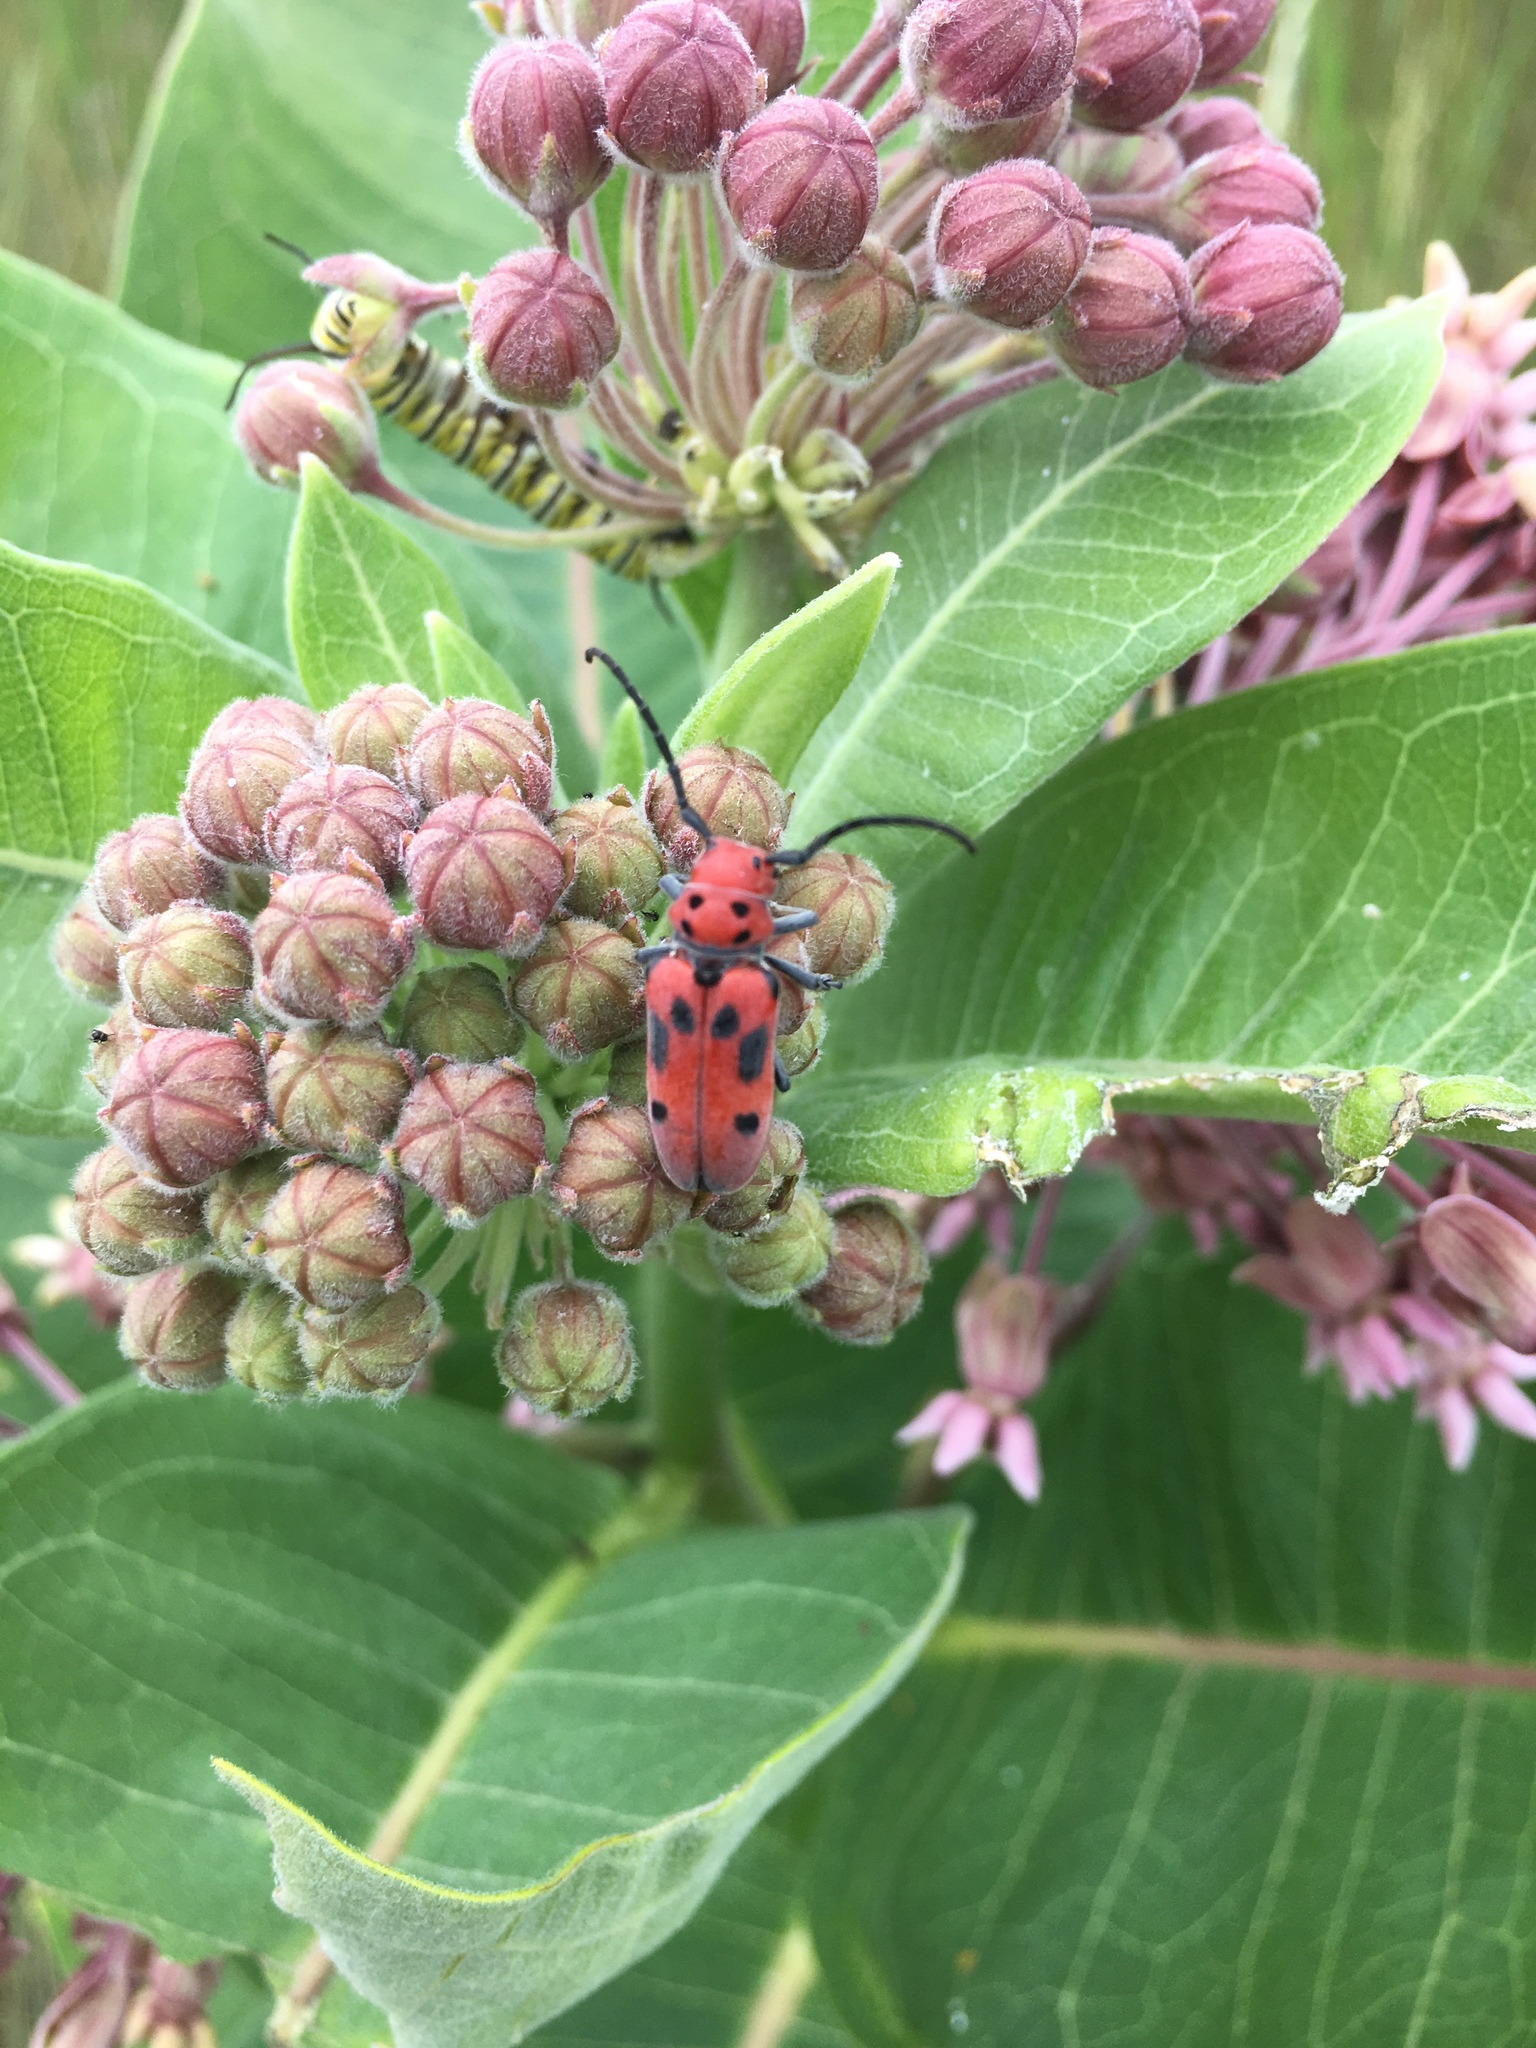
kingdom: Animalia
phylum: Arthropoda
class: Insecta
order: Coleoptera
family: Cerambycidae
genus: Tetraopes
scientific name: Tetraopes tetrophthalmus
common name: Red milkweed beetle
